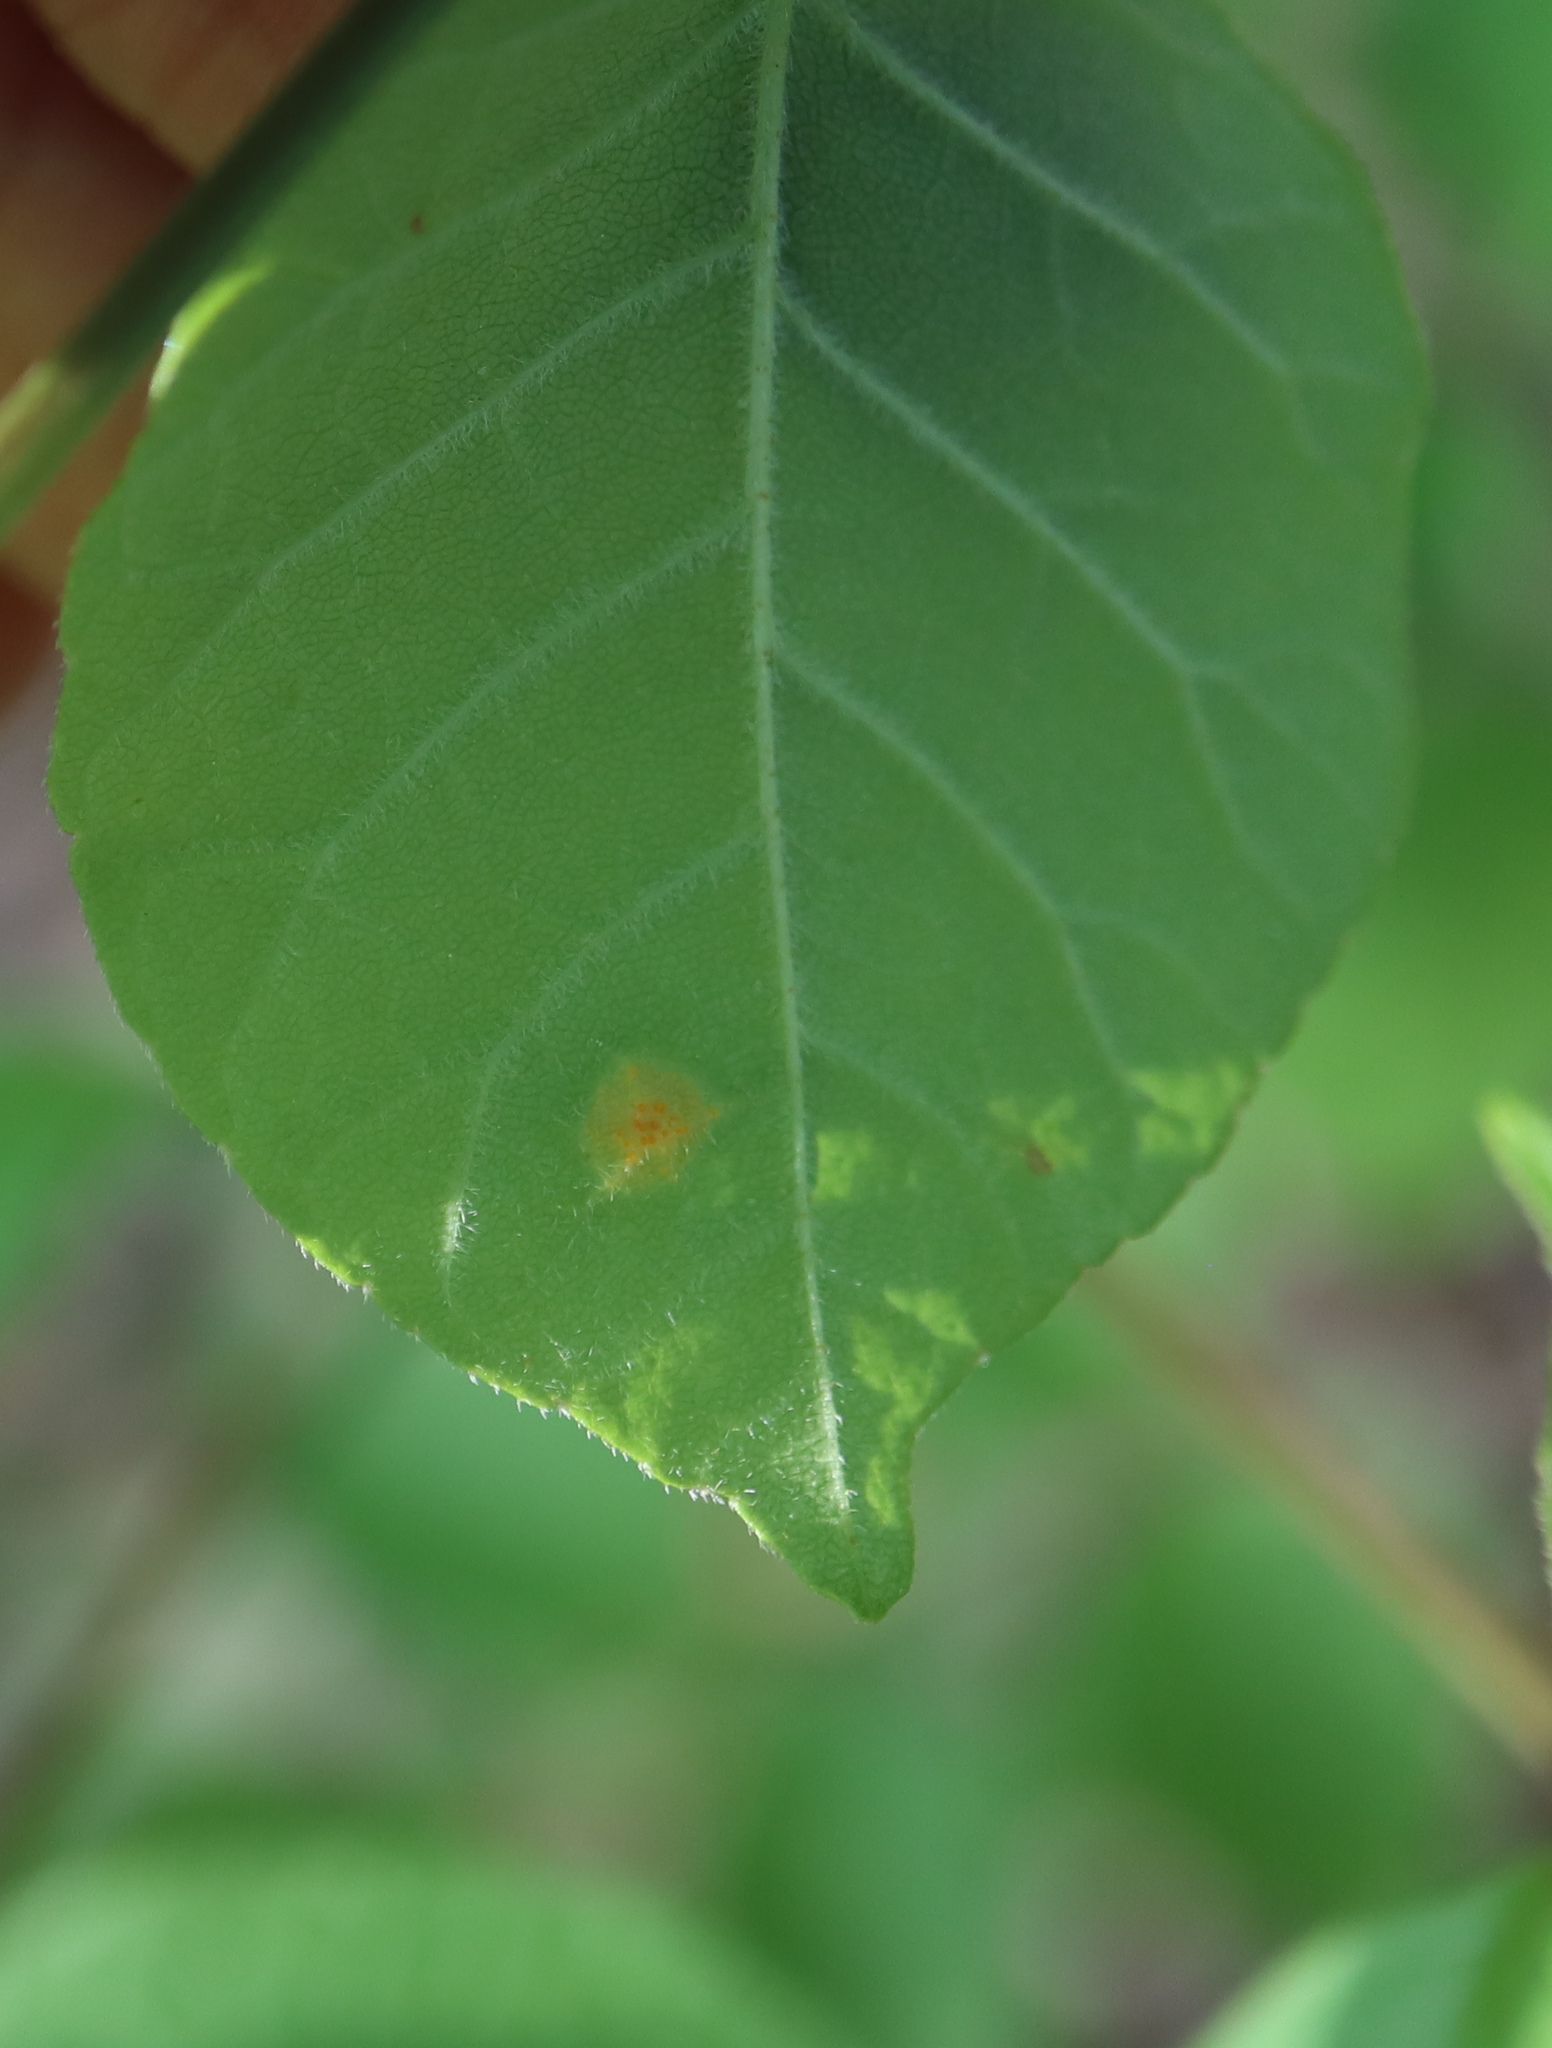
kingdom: Fungi
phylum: Basidiomycota
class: Pucciniomycetes
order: Pucciniales
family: Pucciniaceae
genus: Puccinia
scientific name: Puccinia sparganioidis
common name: Ash rust
